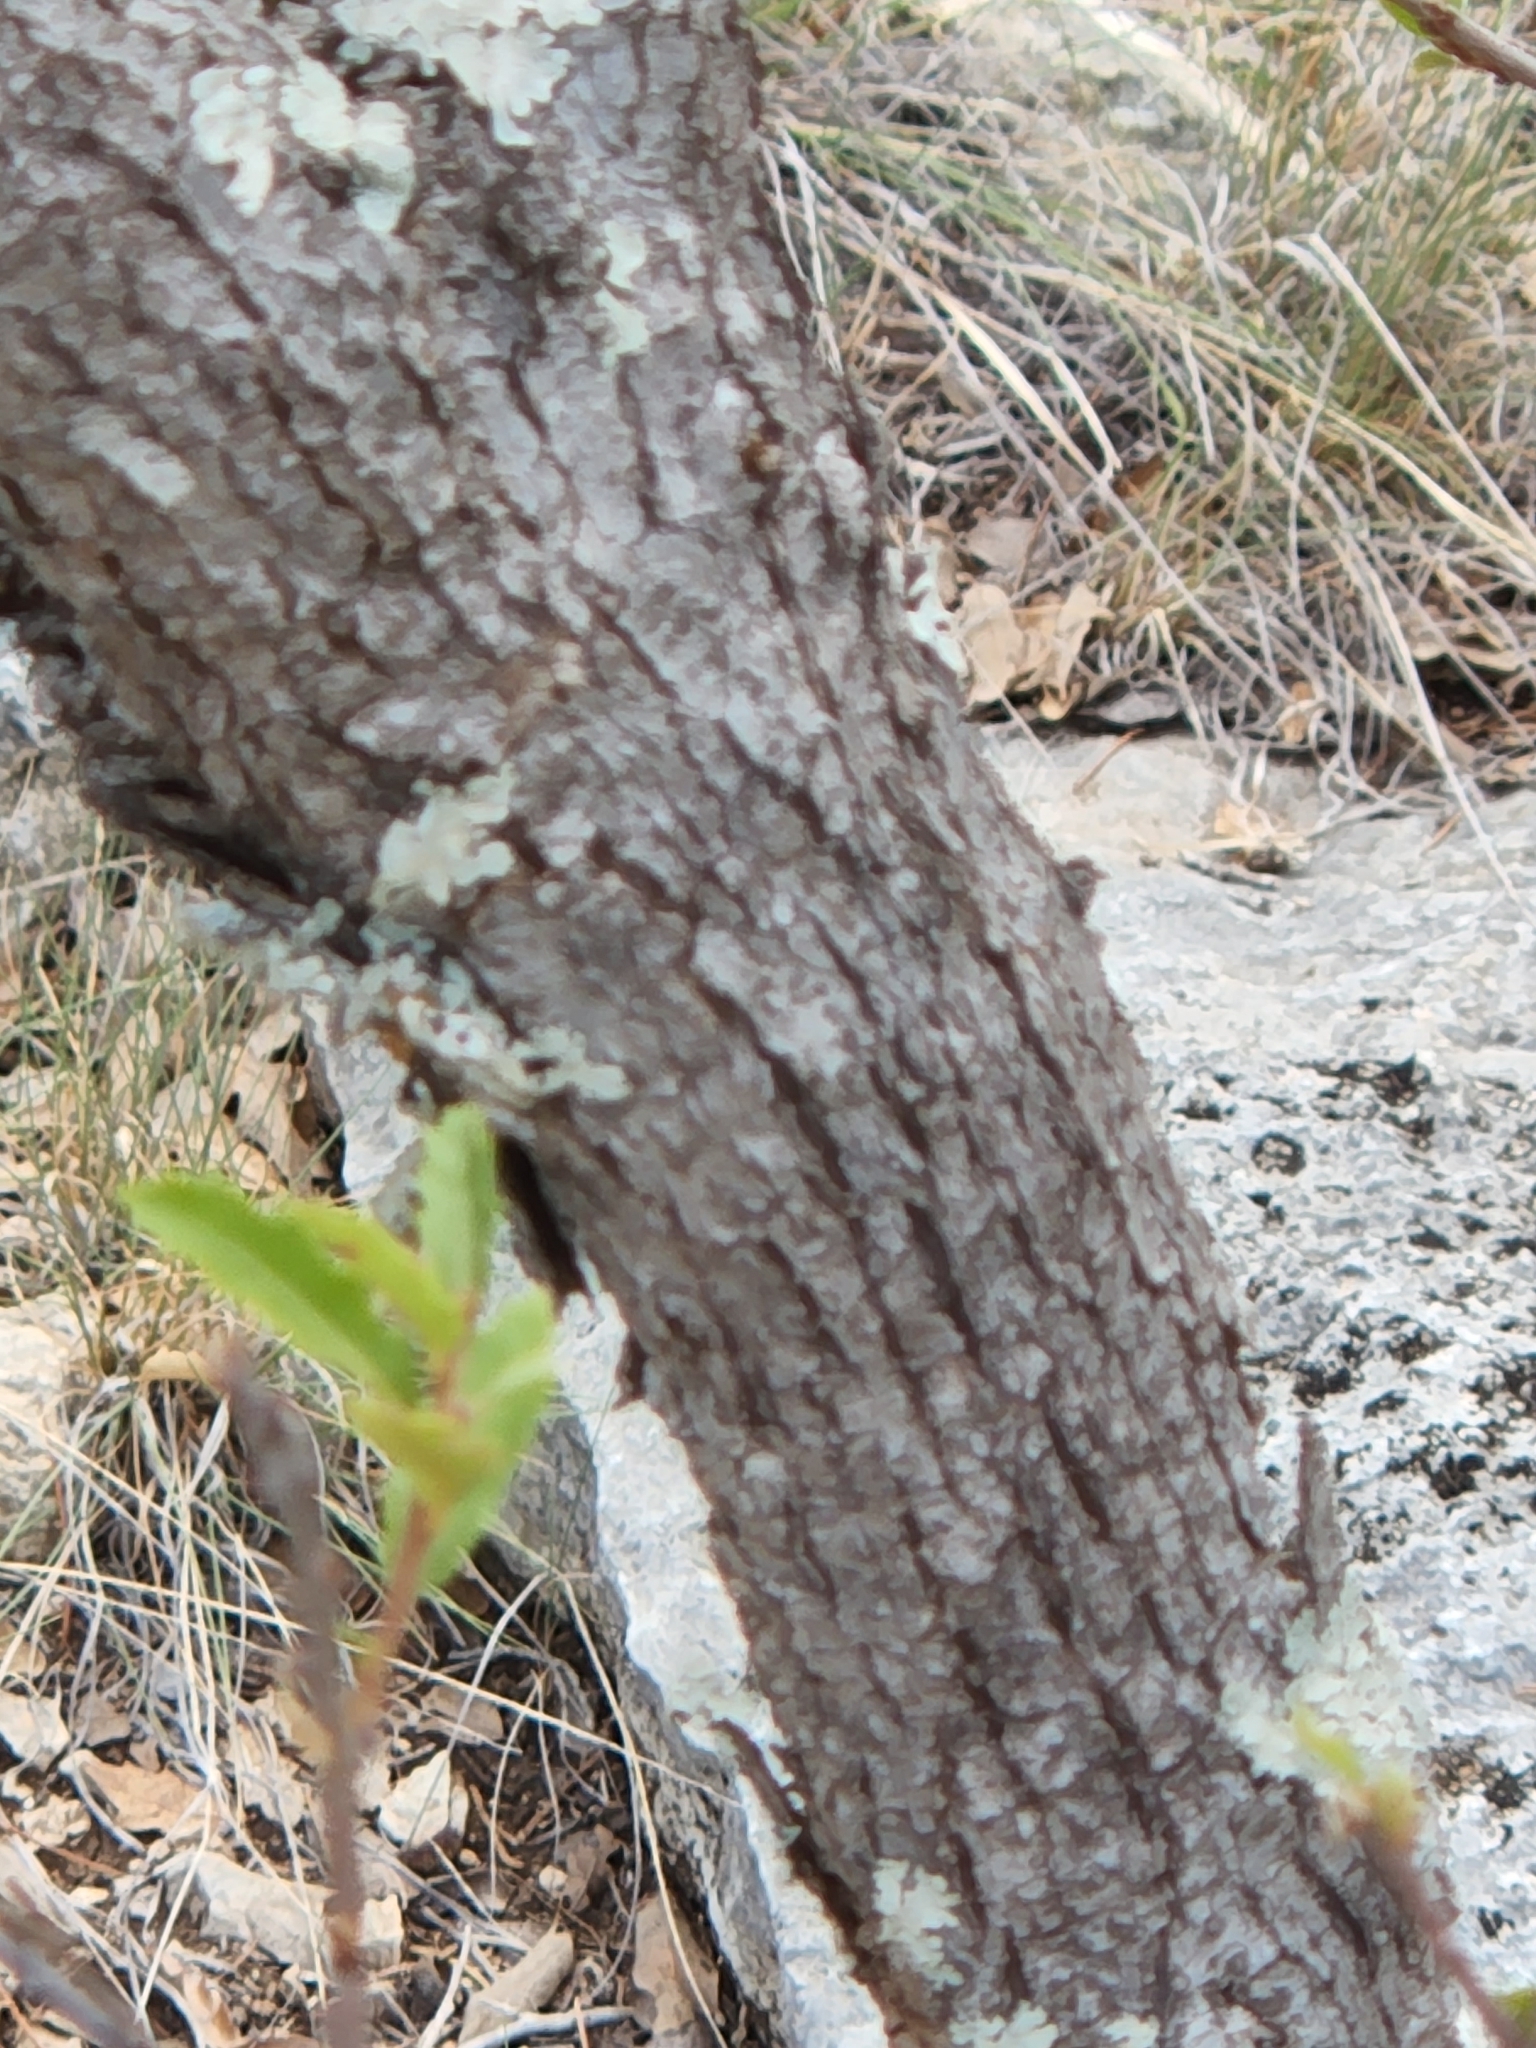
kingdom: Plantae
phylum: Tracheophyta
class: Magnoliopsida
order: Fagales
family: Fagaceae
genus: Quercus
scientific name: Quercus vaseyana
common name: Sandpaper oak
